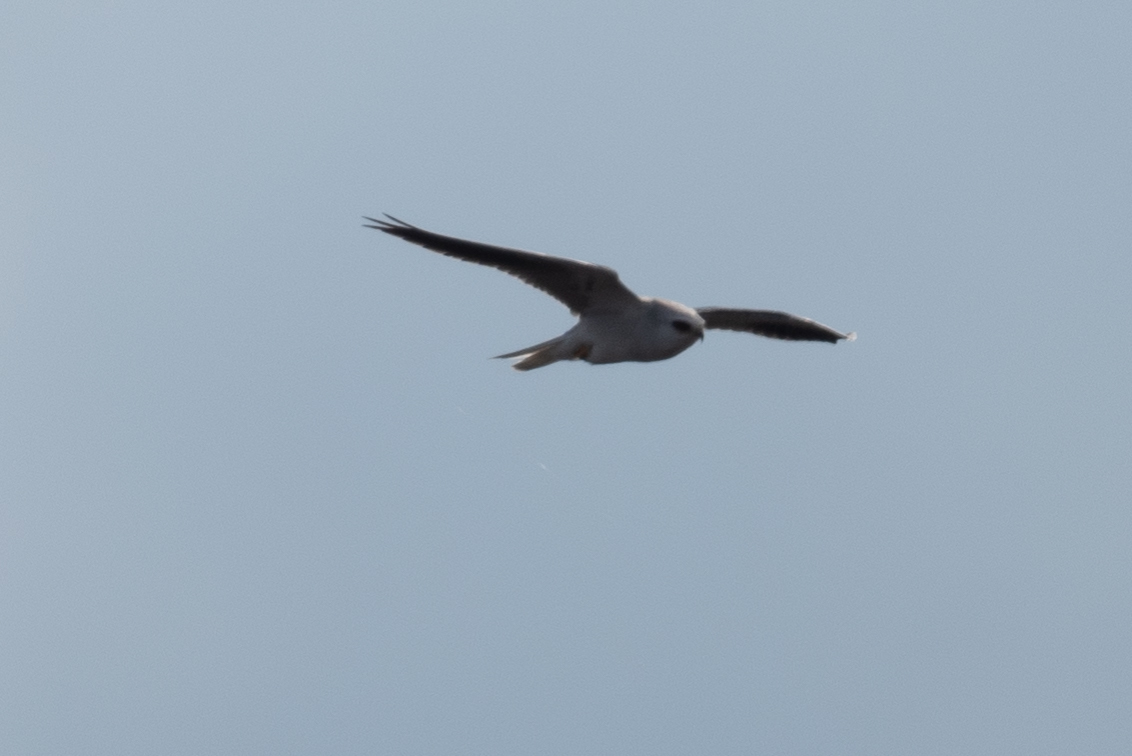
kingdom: Animalia
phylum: Chordata
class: Aves
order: Accipitriformes
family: Accipitridae
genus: Elanus
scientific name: Elanus leucurus
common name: White-tailed kite
